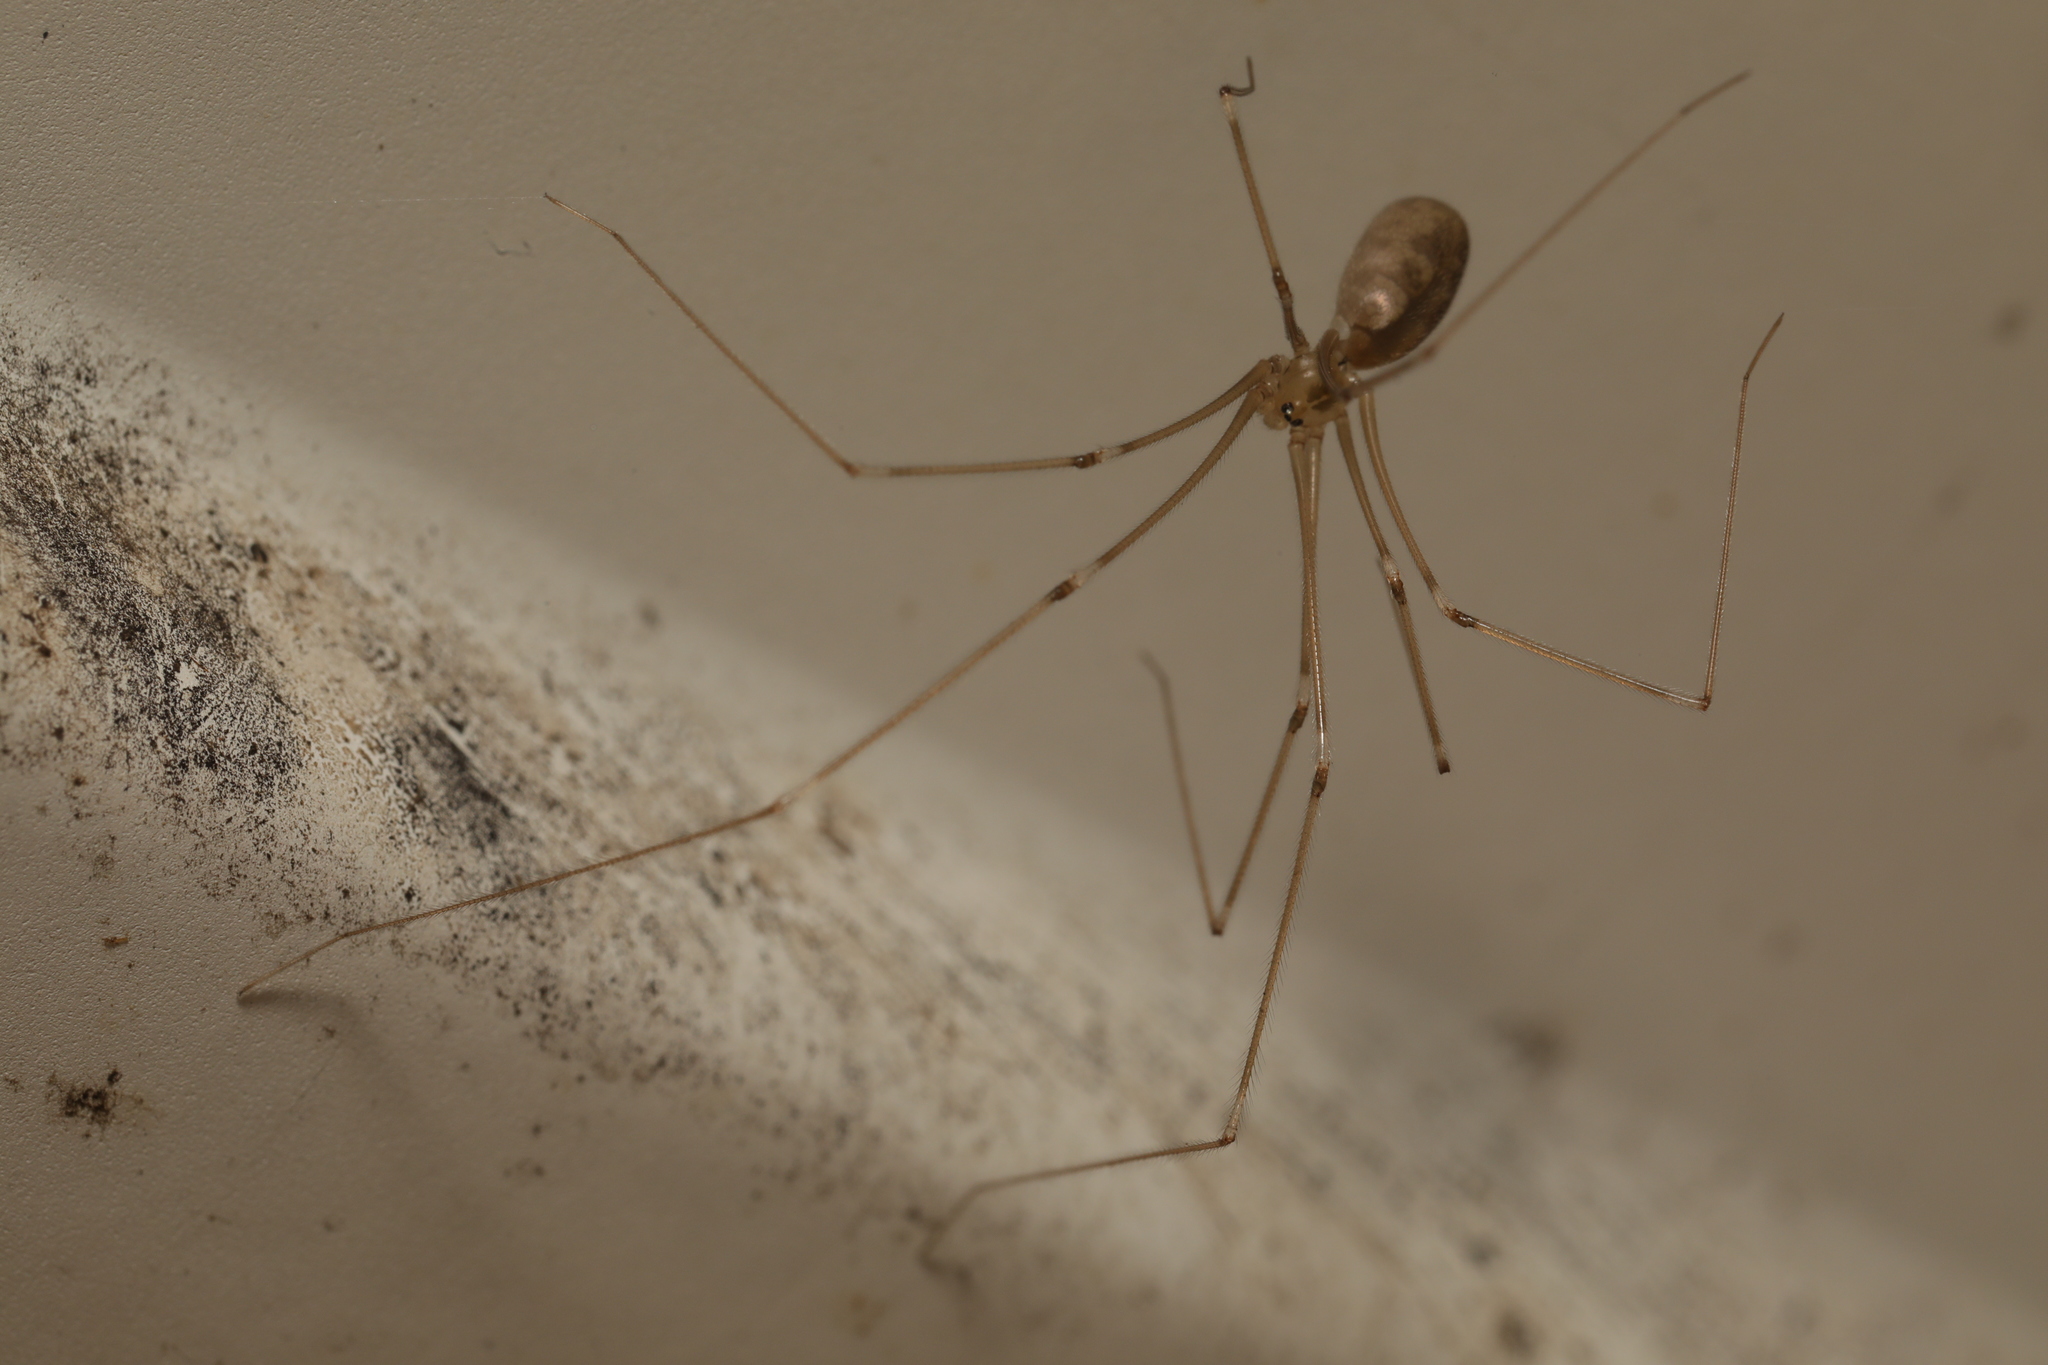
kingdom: Animalia
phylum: Arthropoda
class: Arachnida
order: Araneae
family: Pholcidae
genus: Pholcus
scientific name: Pholcus phalangioides
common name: Longbodied cellar spider
